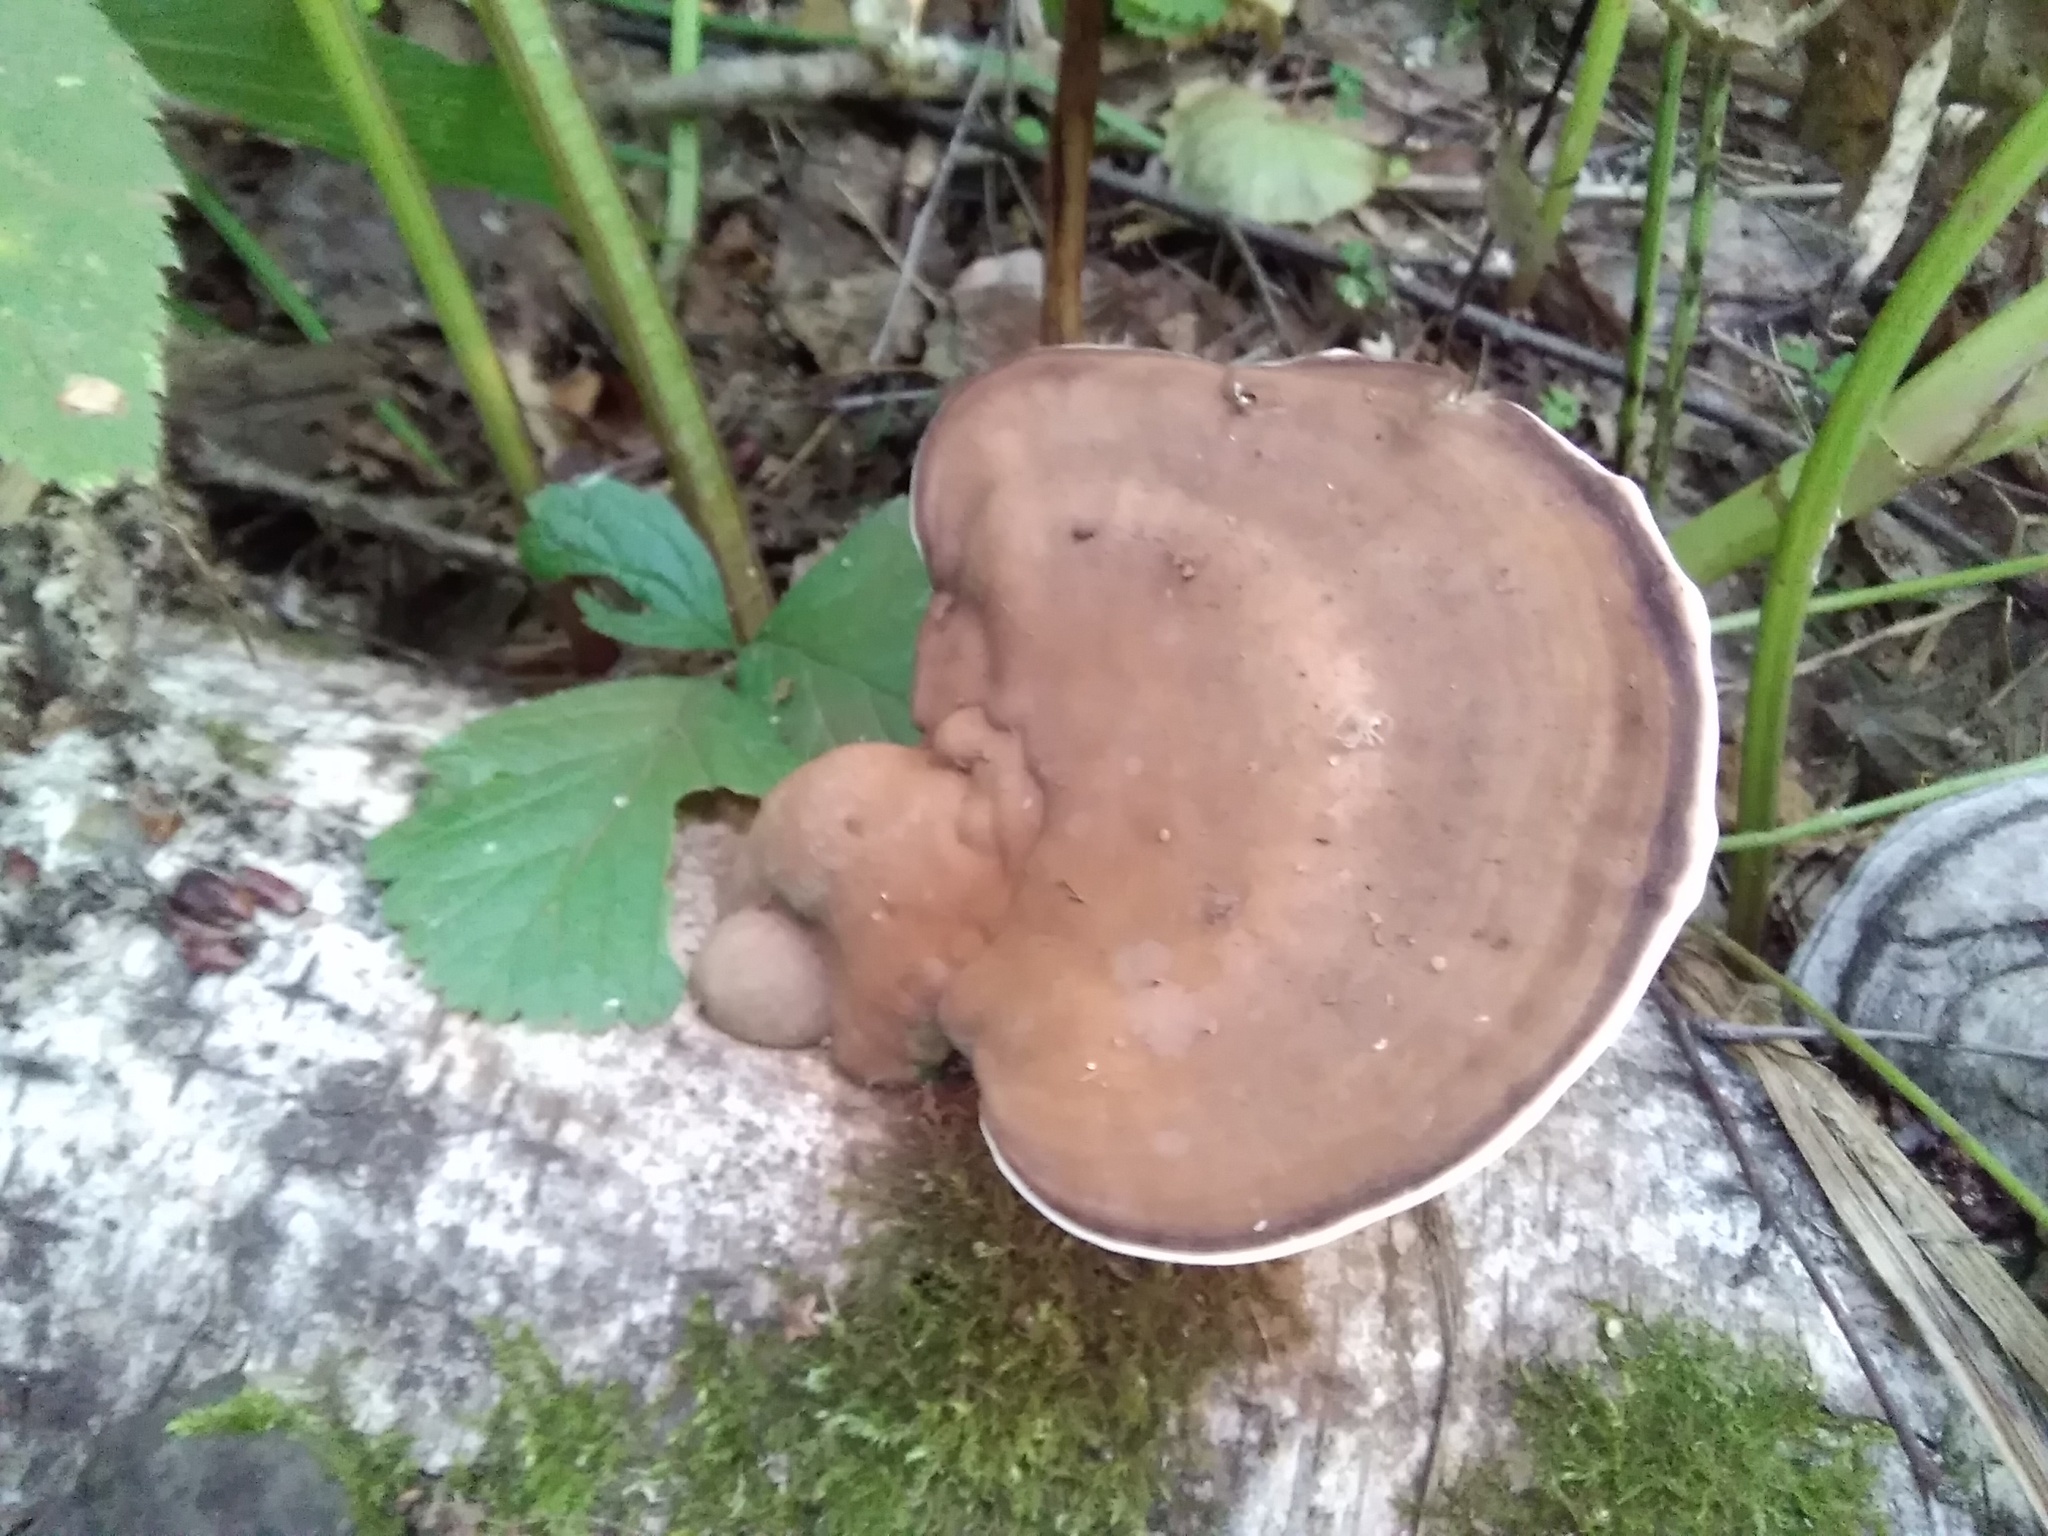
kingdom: Fungi
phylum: Basidiomycota
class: Agaricomycetes
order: Polyporales
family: Polyporaceae
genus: Ganoderma
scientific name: Ganoderma applanatum
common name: Artist's bracket
